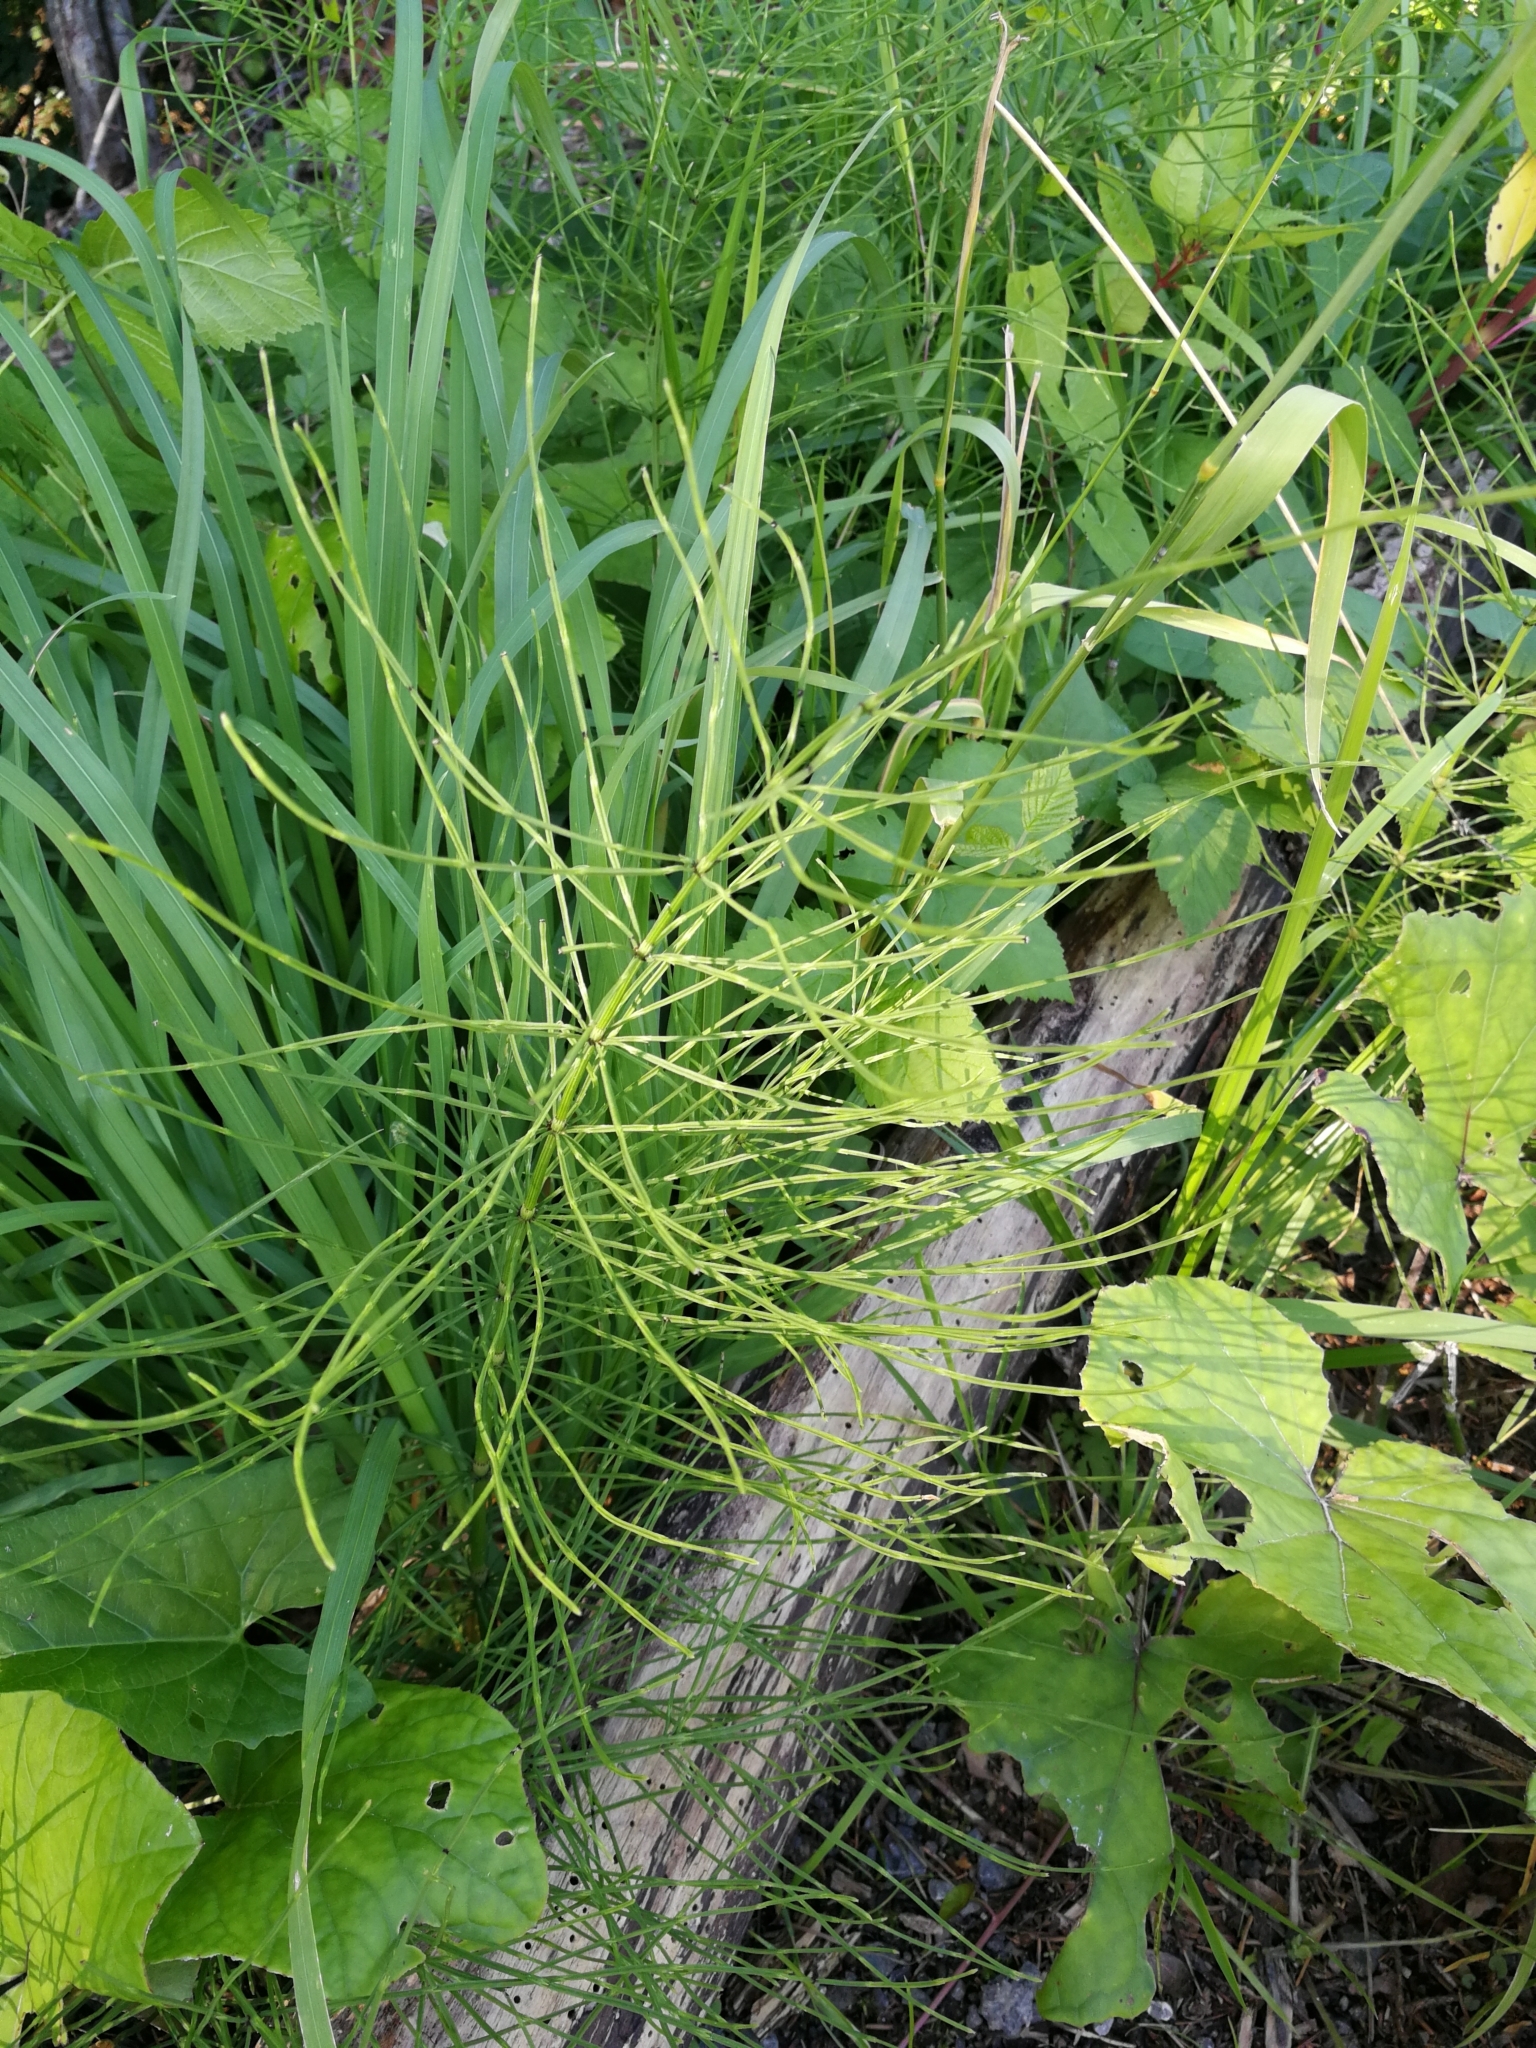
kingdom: Plantae
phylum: Tracheophyta
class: Polypodiopsida
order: Equisetales
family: Equisetaceae
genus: Equisetum
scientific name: Equisetum arvense
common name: Field horsetail
